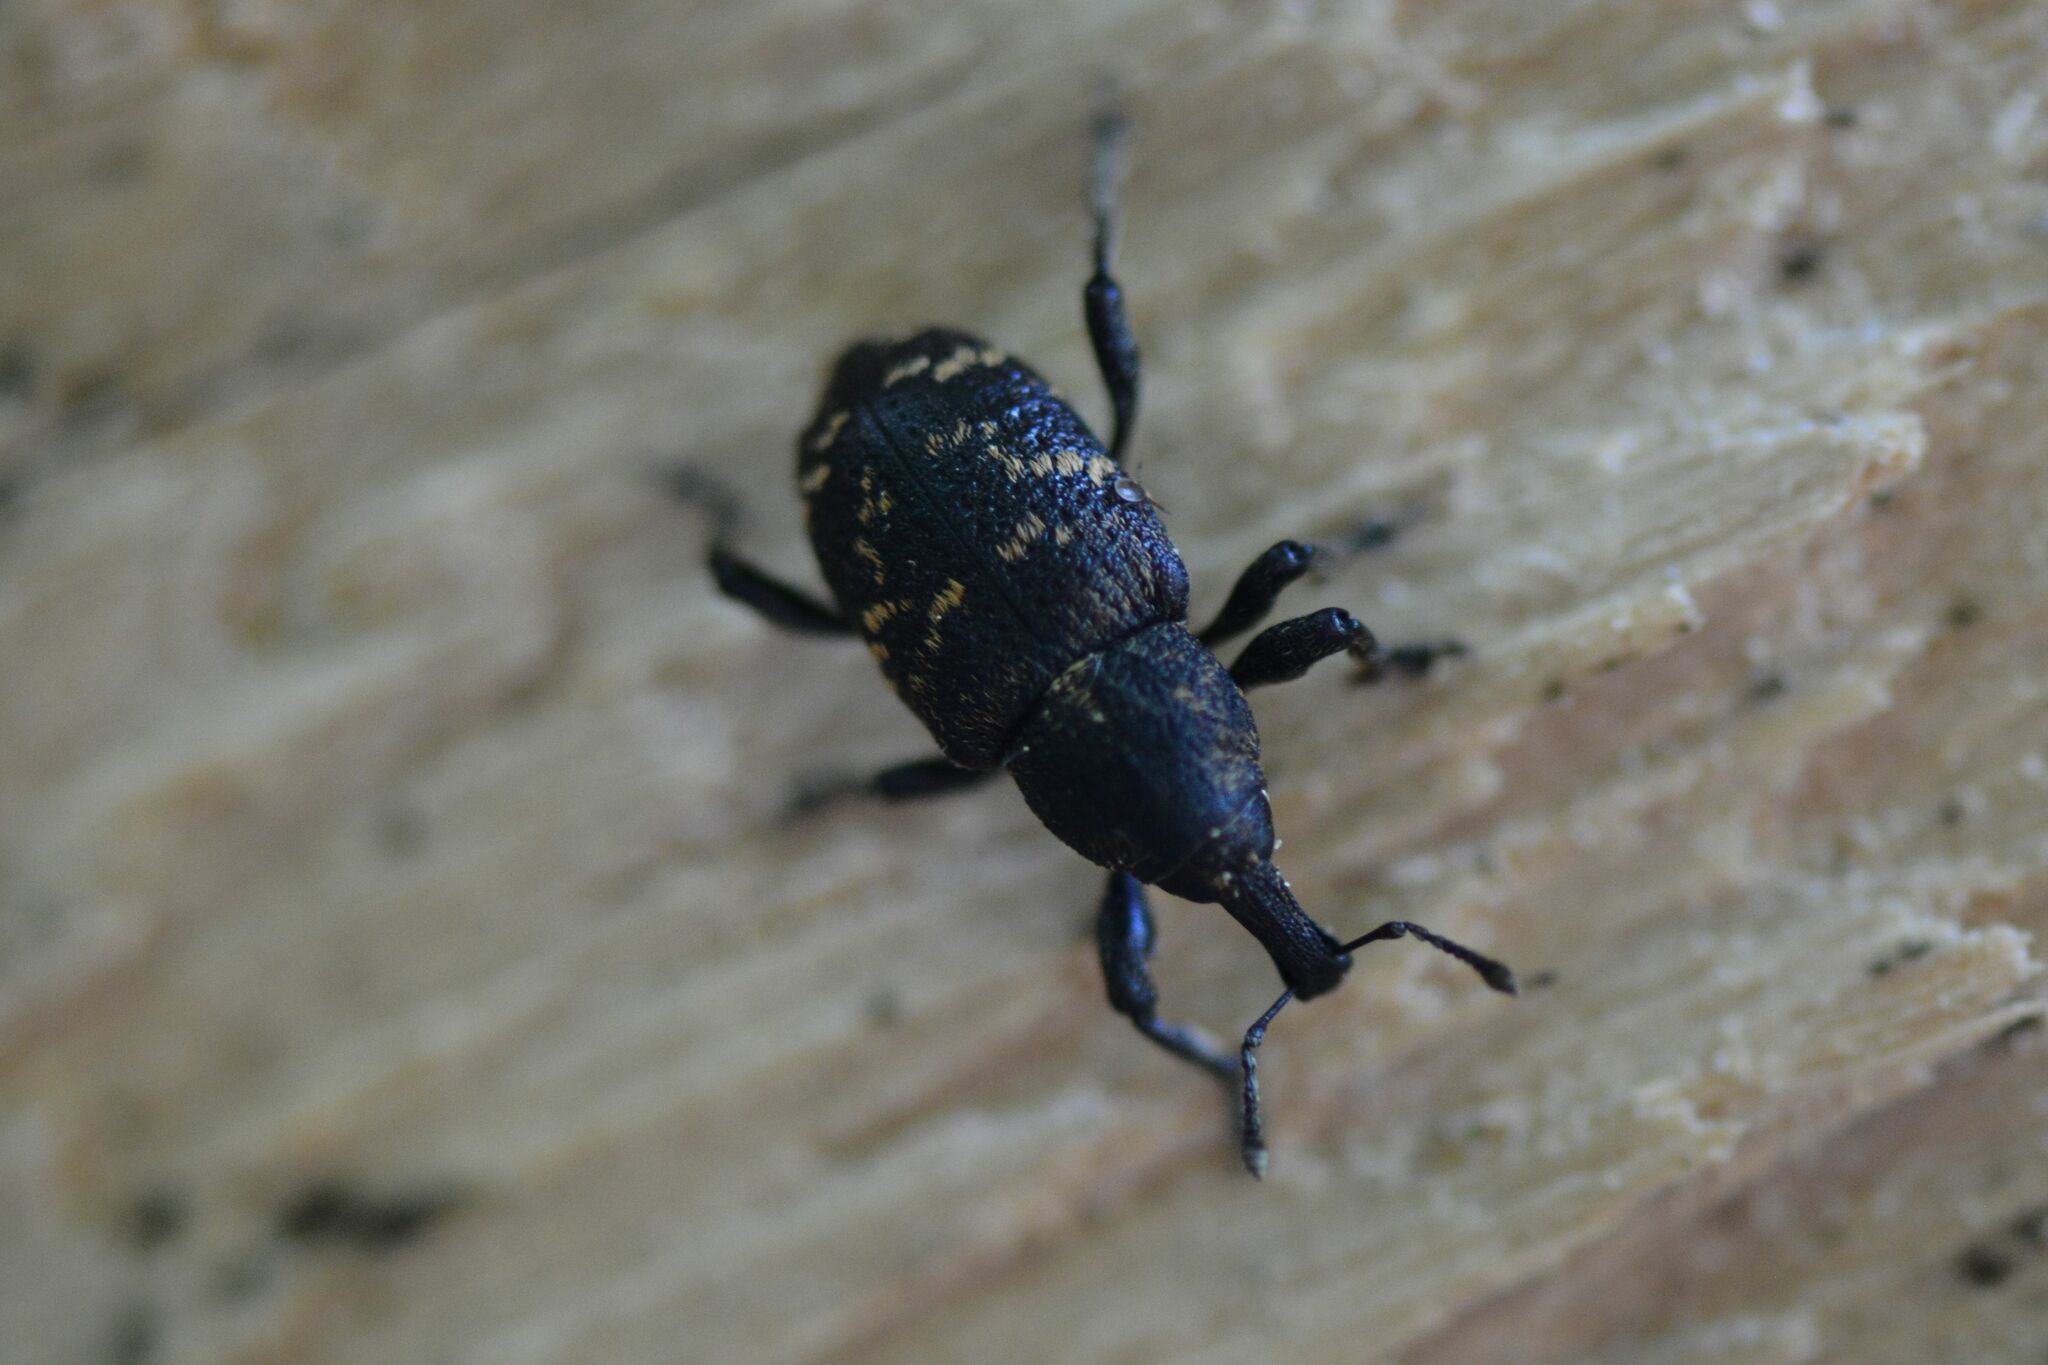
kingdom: Animalia
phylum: Arthropoda
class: Insecta
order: Coleoptera
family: Curculionidae
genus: Hylobius
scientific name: Hylobius abietis
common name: Large pine weevil
